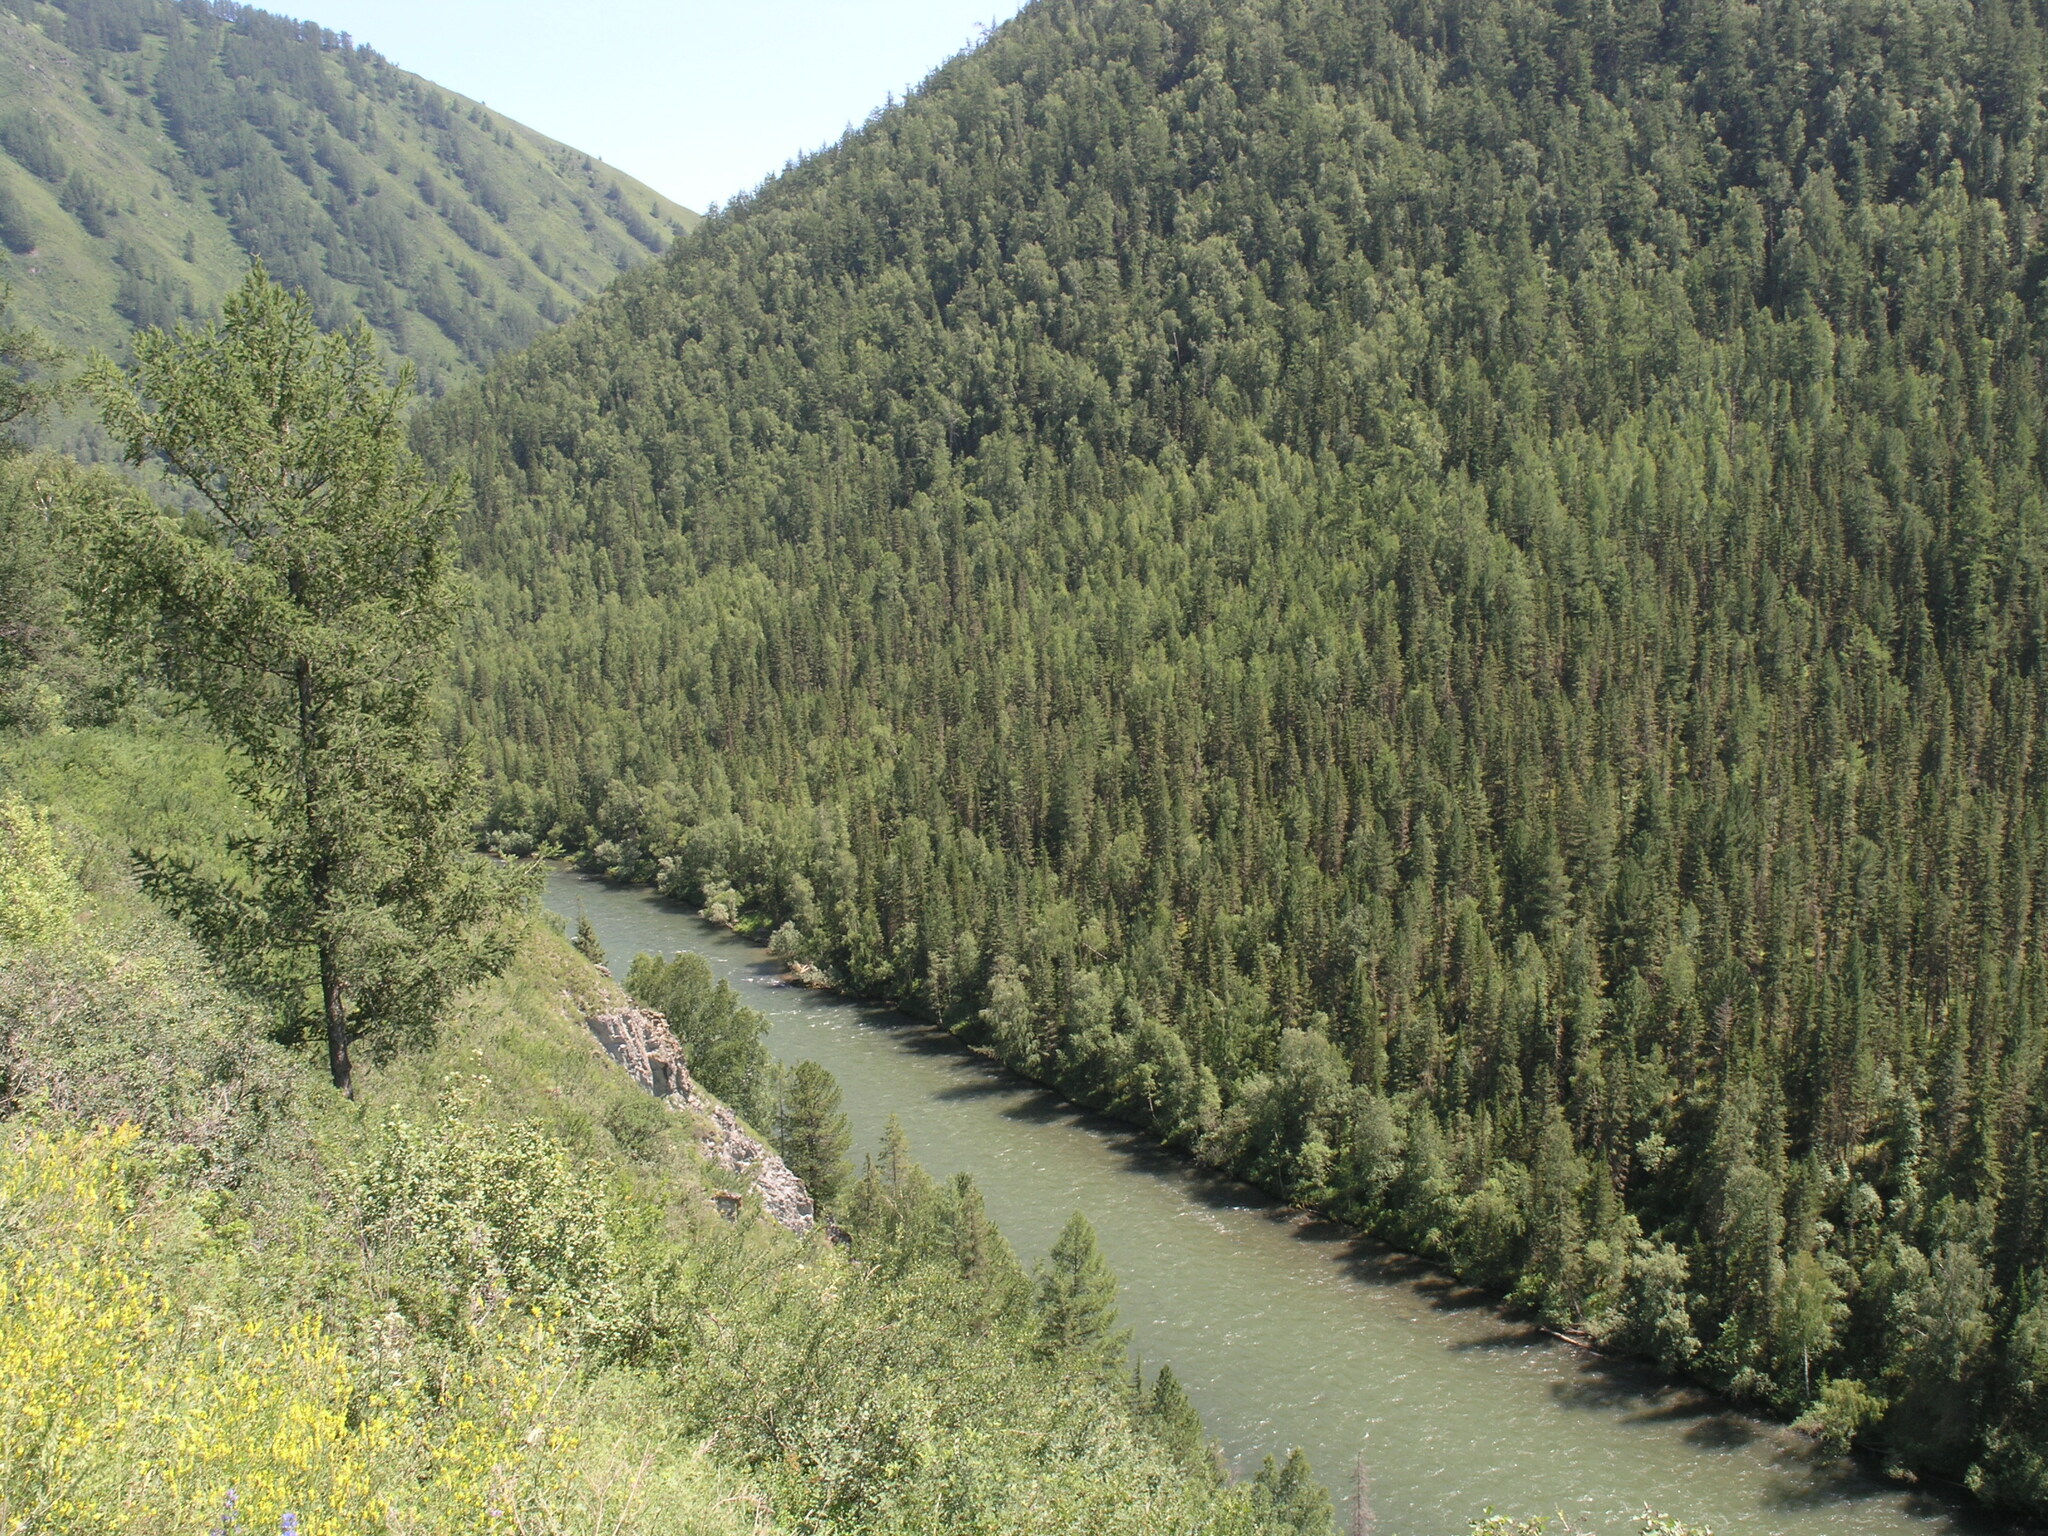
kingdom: Plantae
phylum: Tracheophyta
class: Pinopsida
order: Pinales
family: Pinaceae
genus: Larix
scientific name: Larix sibirica
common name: Siberian larch
